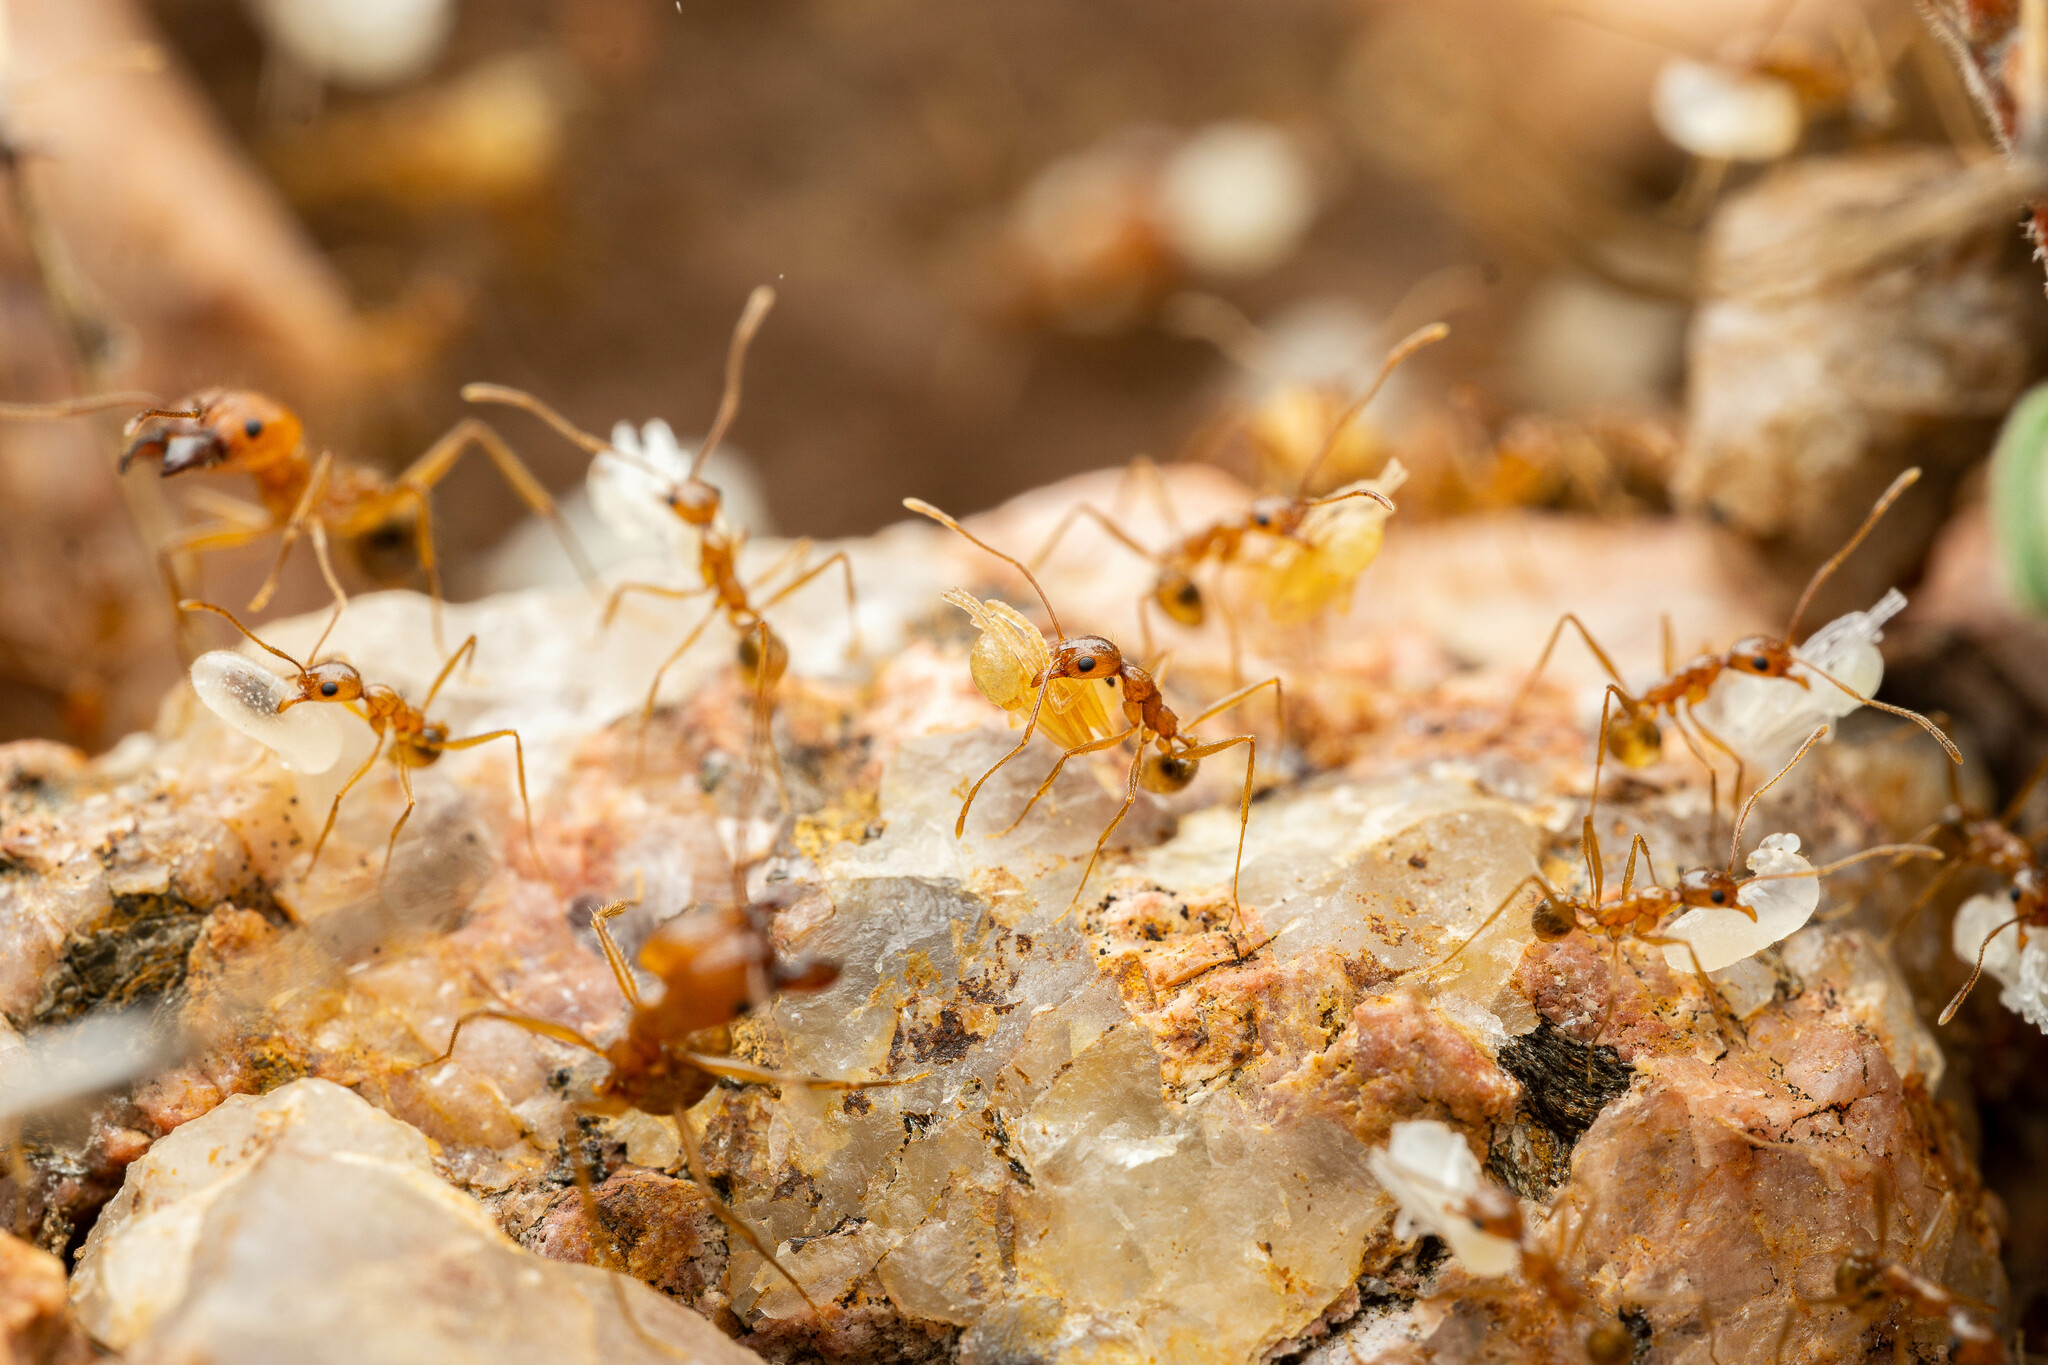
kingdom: Animalia
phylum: Arthropoda
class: Insecta
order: Hymenoptera
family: Formicidae
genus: Pheidole
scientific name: Pheidole desertorum
